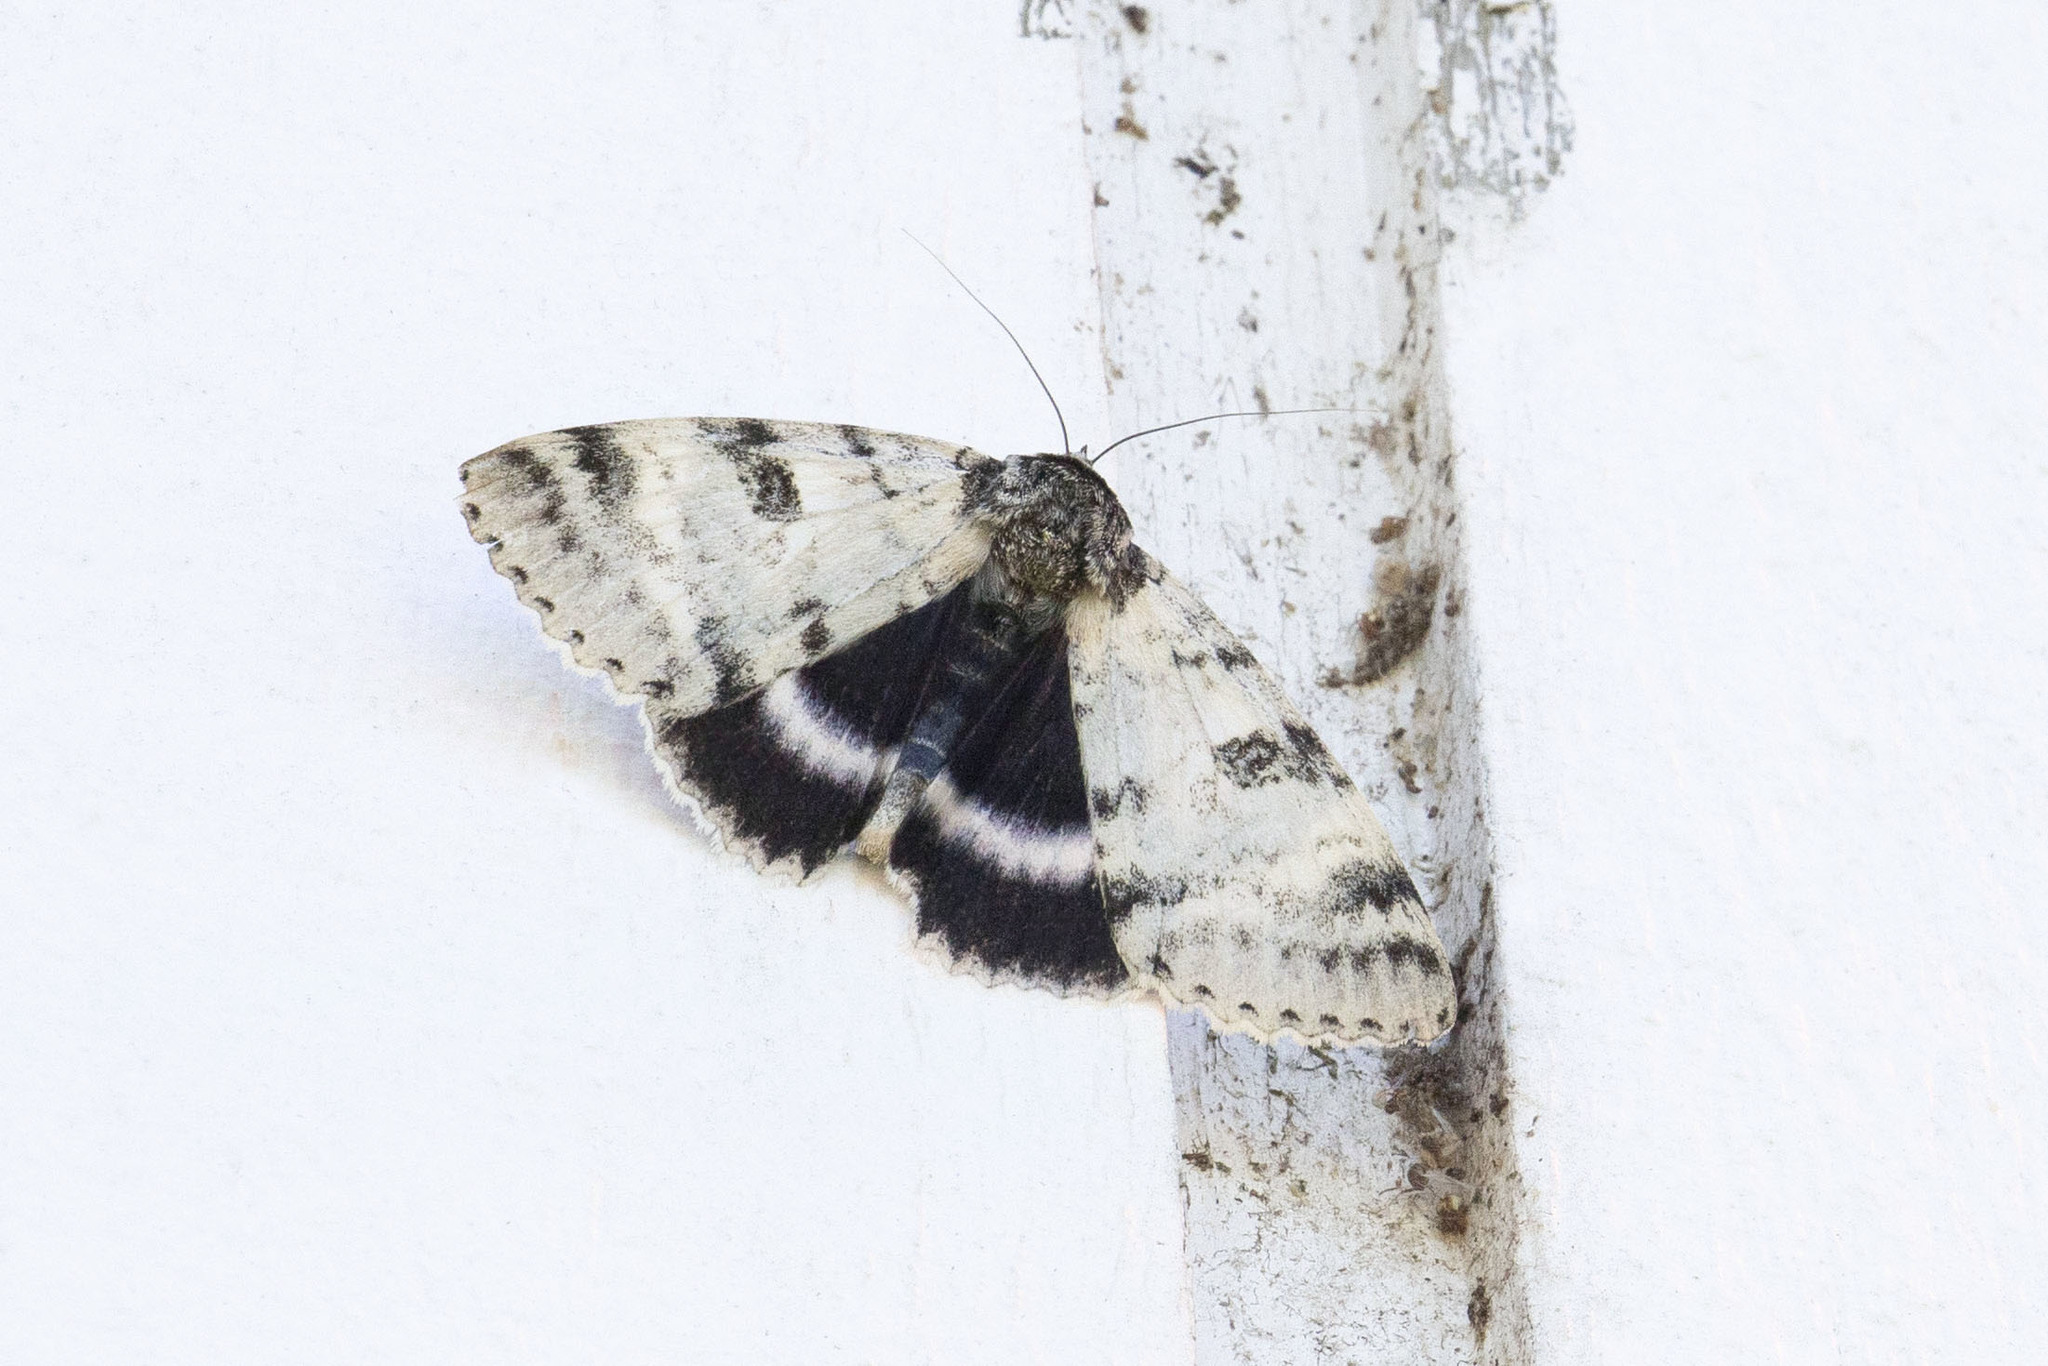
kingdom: Animalia
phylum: Arthropoda
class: Insecta
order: Lepidoptera
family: Erebidae
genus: Catocala
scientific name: Catocala relicta
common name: White underwing
